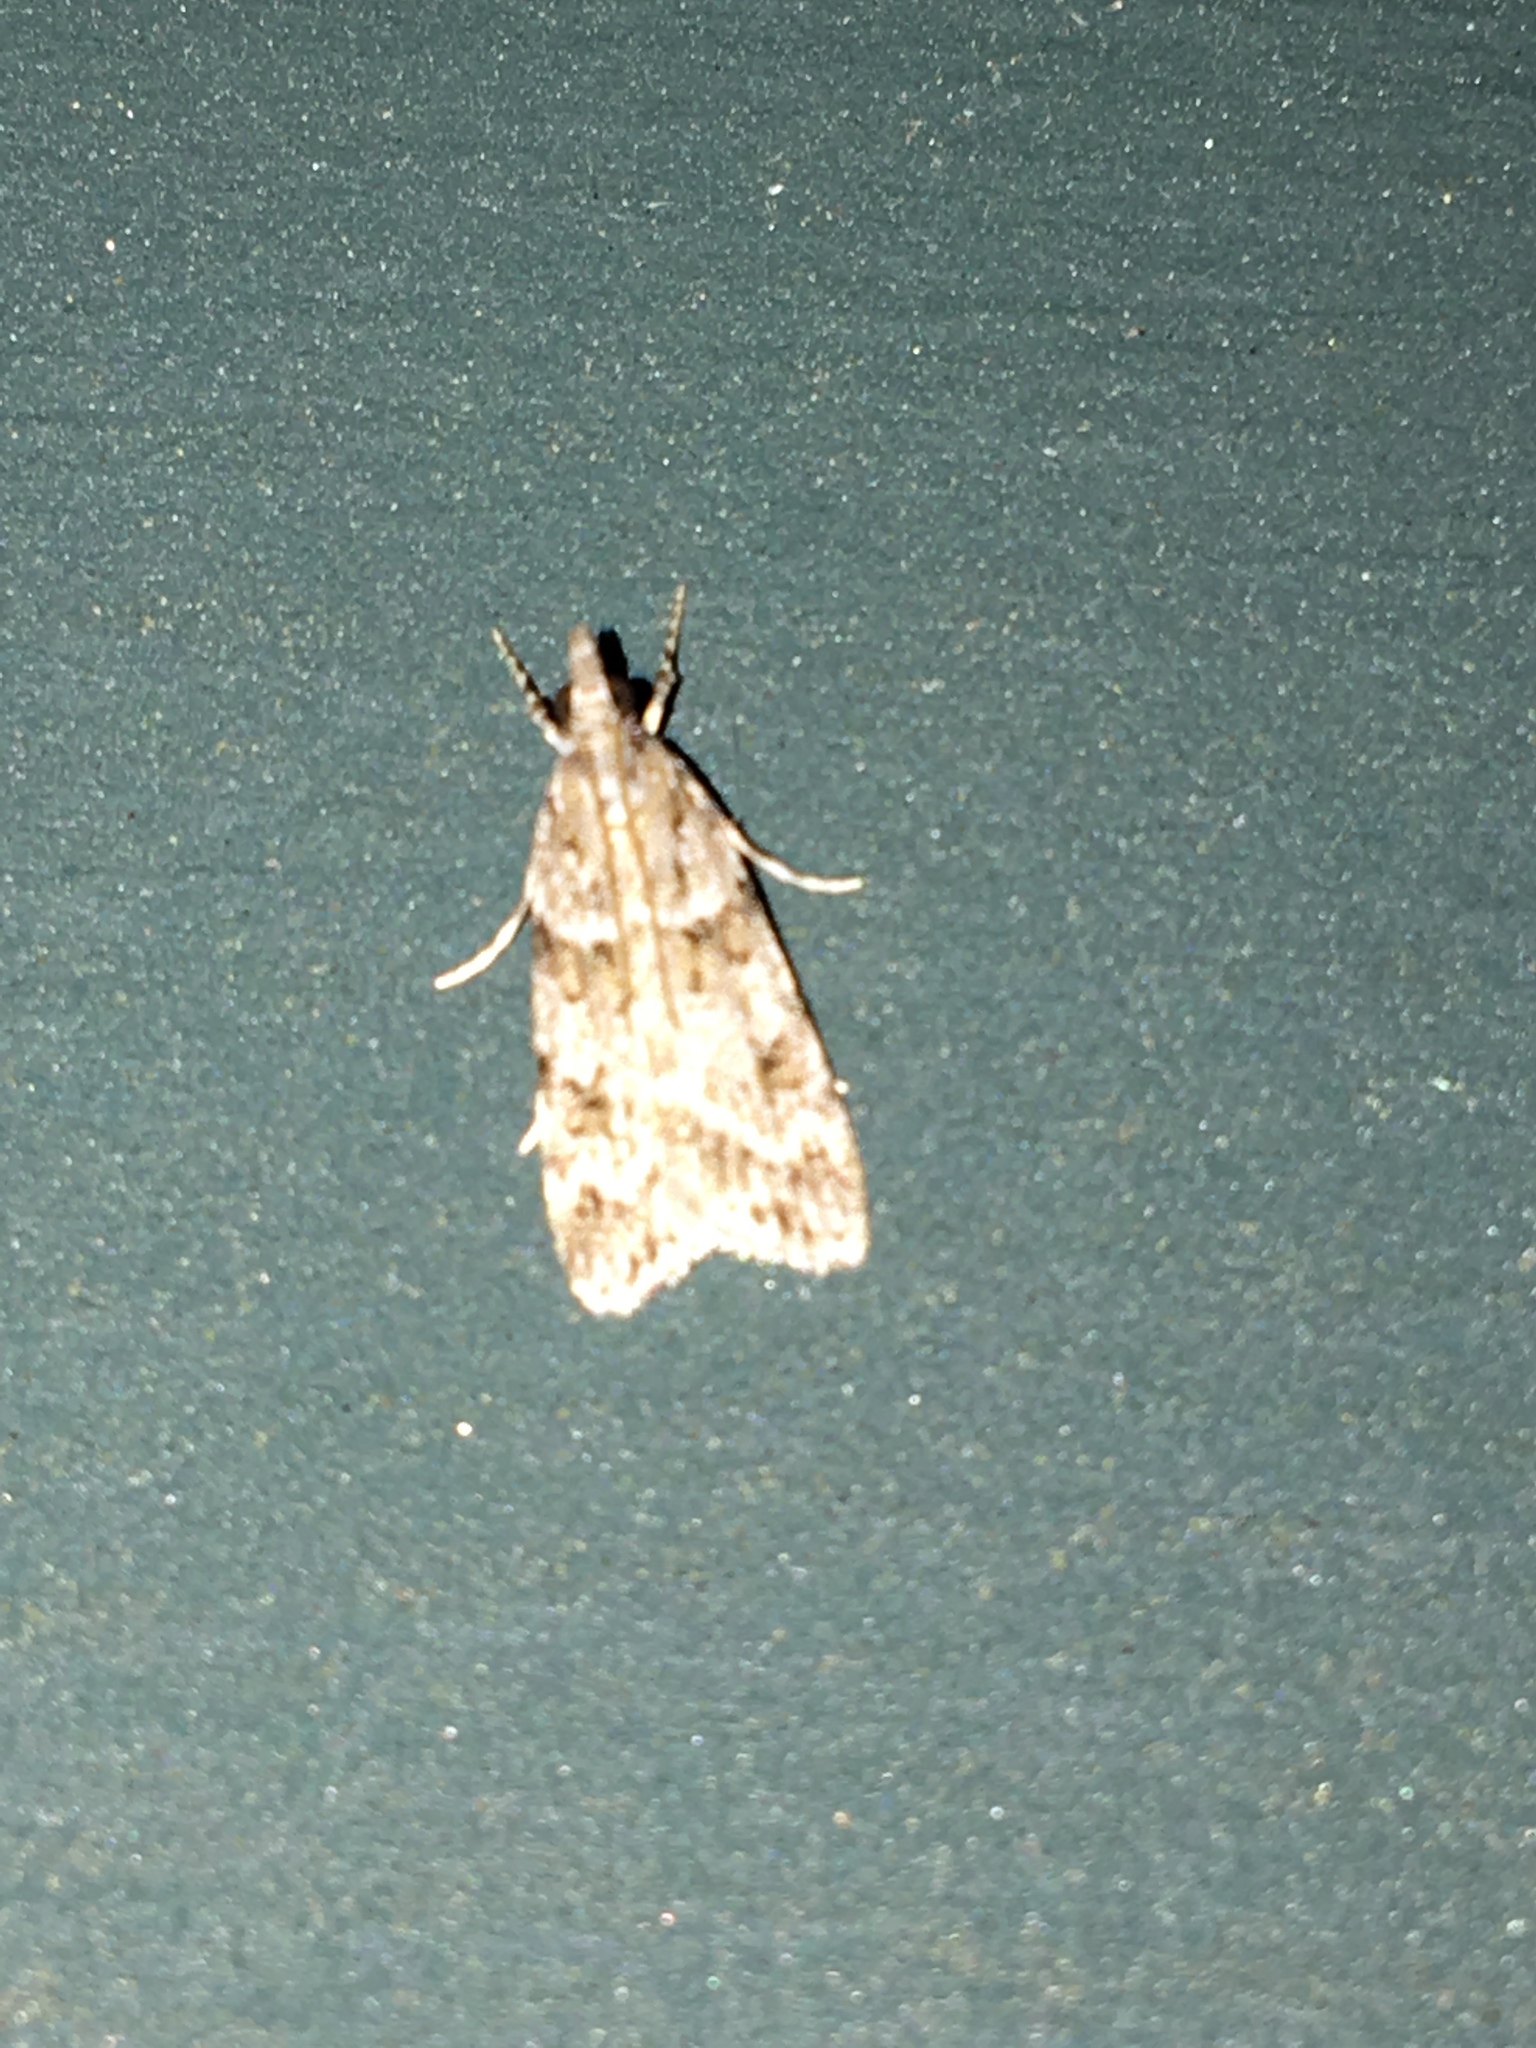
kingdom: Animalia
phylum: Arthropoda
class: Insecta
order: Lepidoptera
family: Crambidae
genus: Scoparia
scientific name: Scoparia biplagialis
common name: Double-striped scoparia moth
